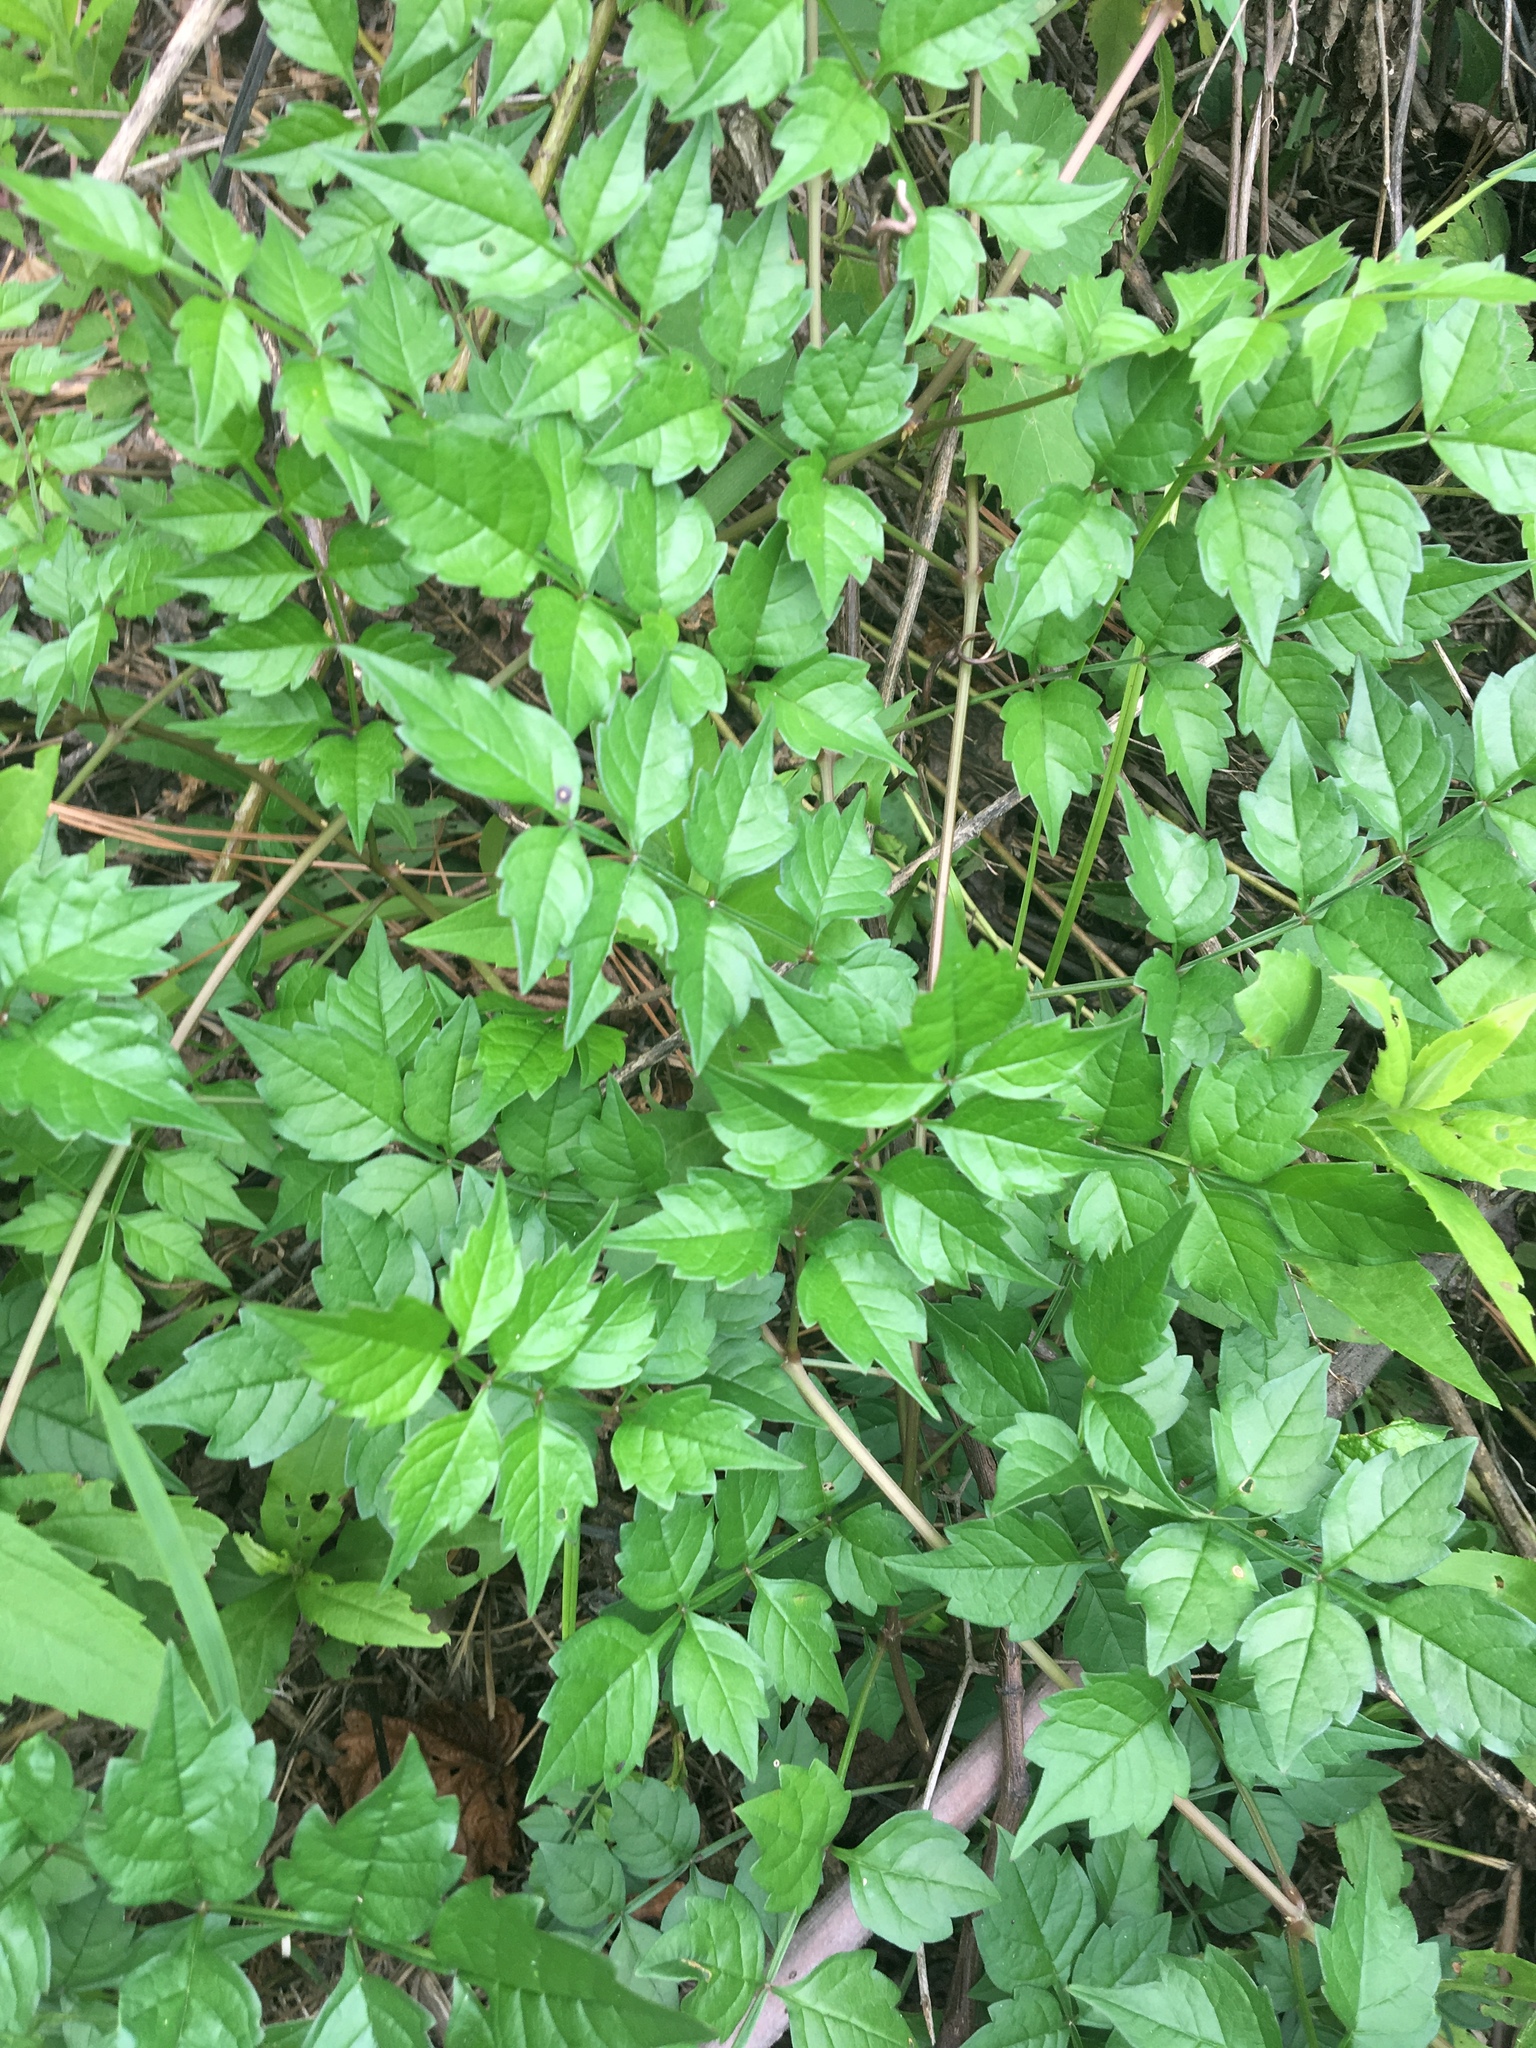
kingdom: Plantae
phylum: Tracheophyta
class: Magnoliopsida
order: Lamiales
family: Bignoniaceae
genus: Campsis
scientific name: Campsis radicans
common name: Trumpet-creeper
